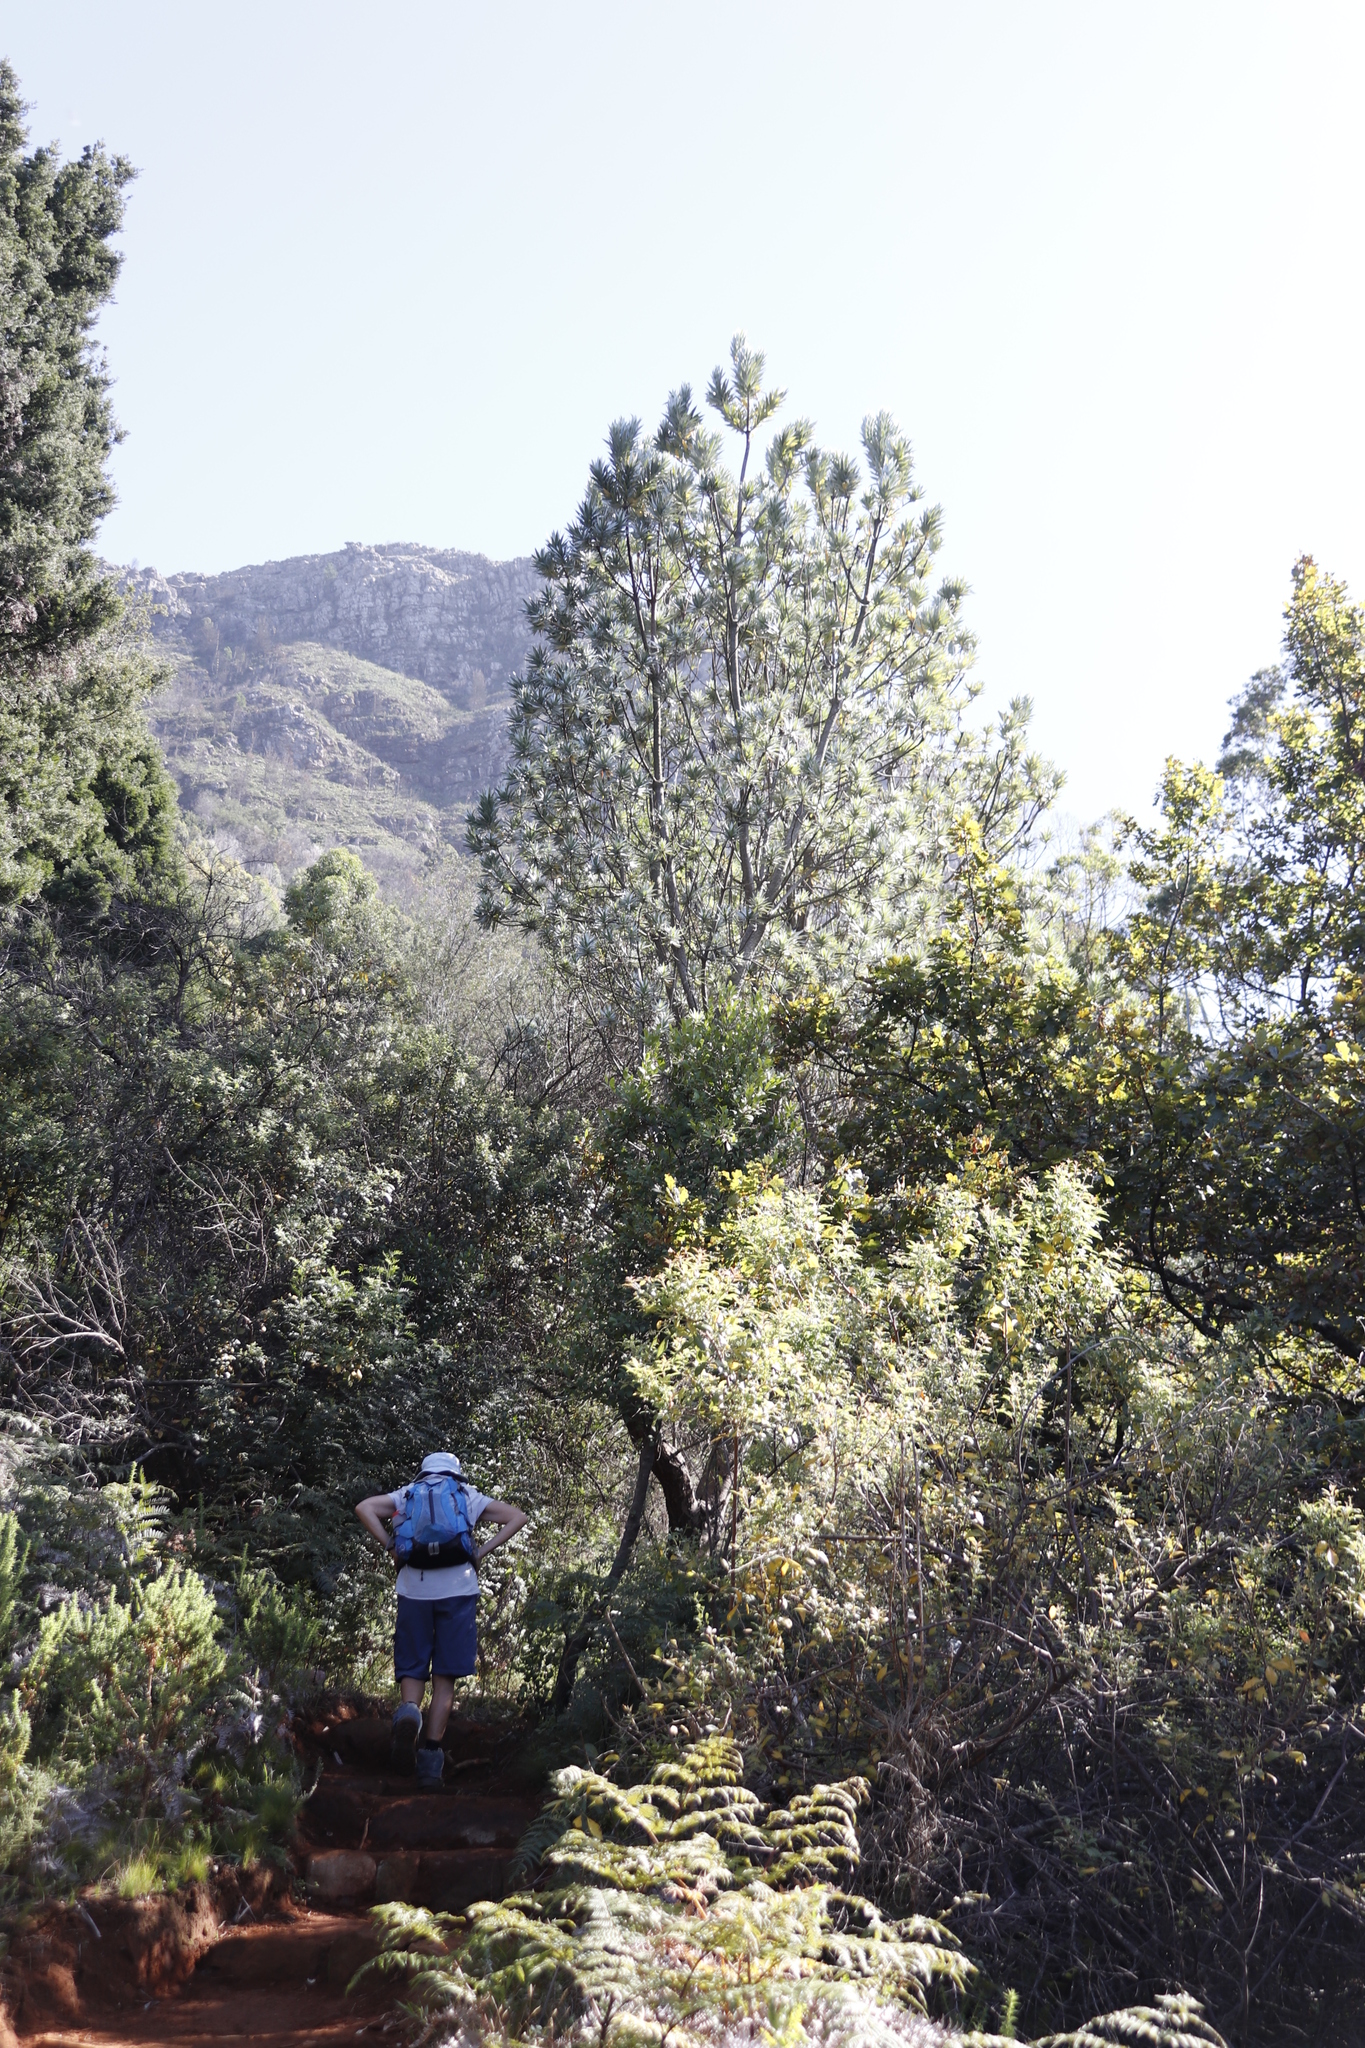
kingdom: Plantae
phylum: Tracheophyta
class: Magnoliopsida
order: Proteales
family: Proteaceae
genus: Leucadendron
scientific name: Leucadendron argenteum
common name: Cape silver tree
